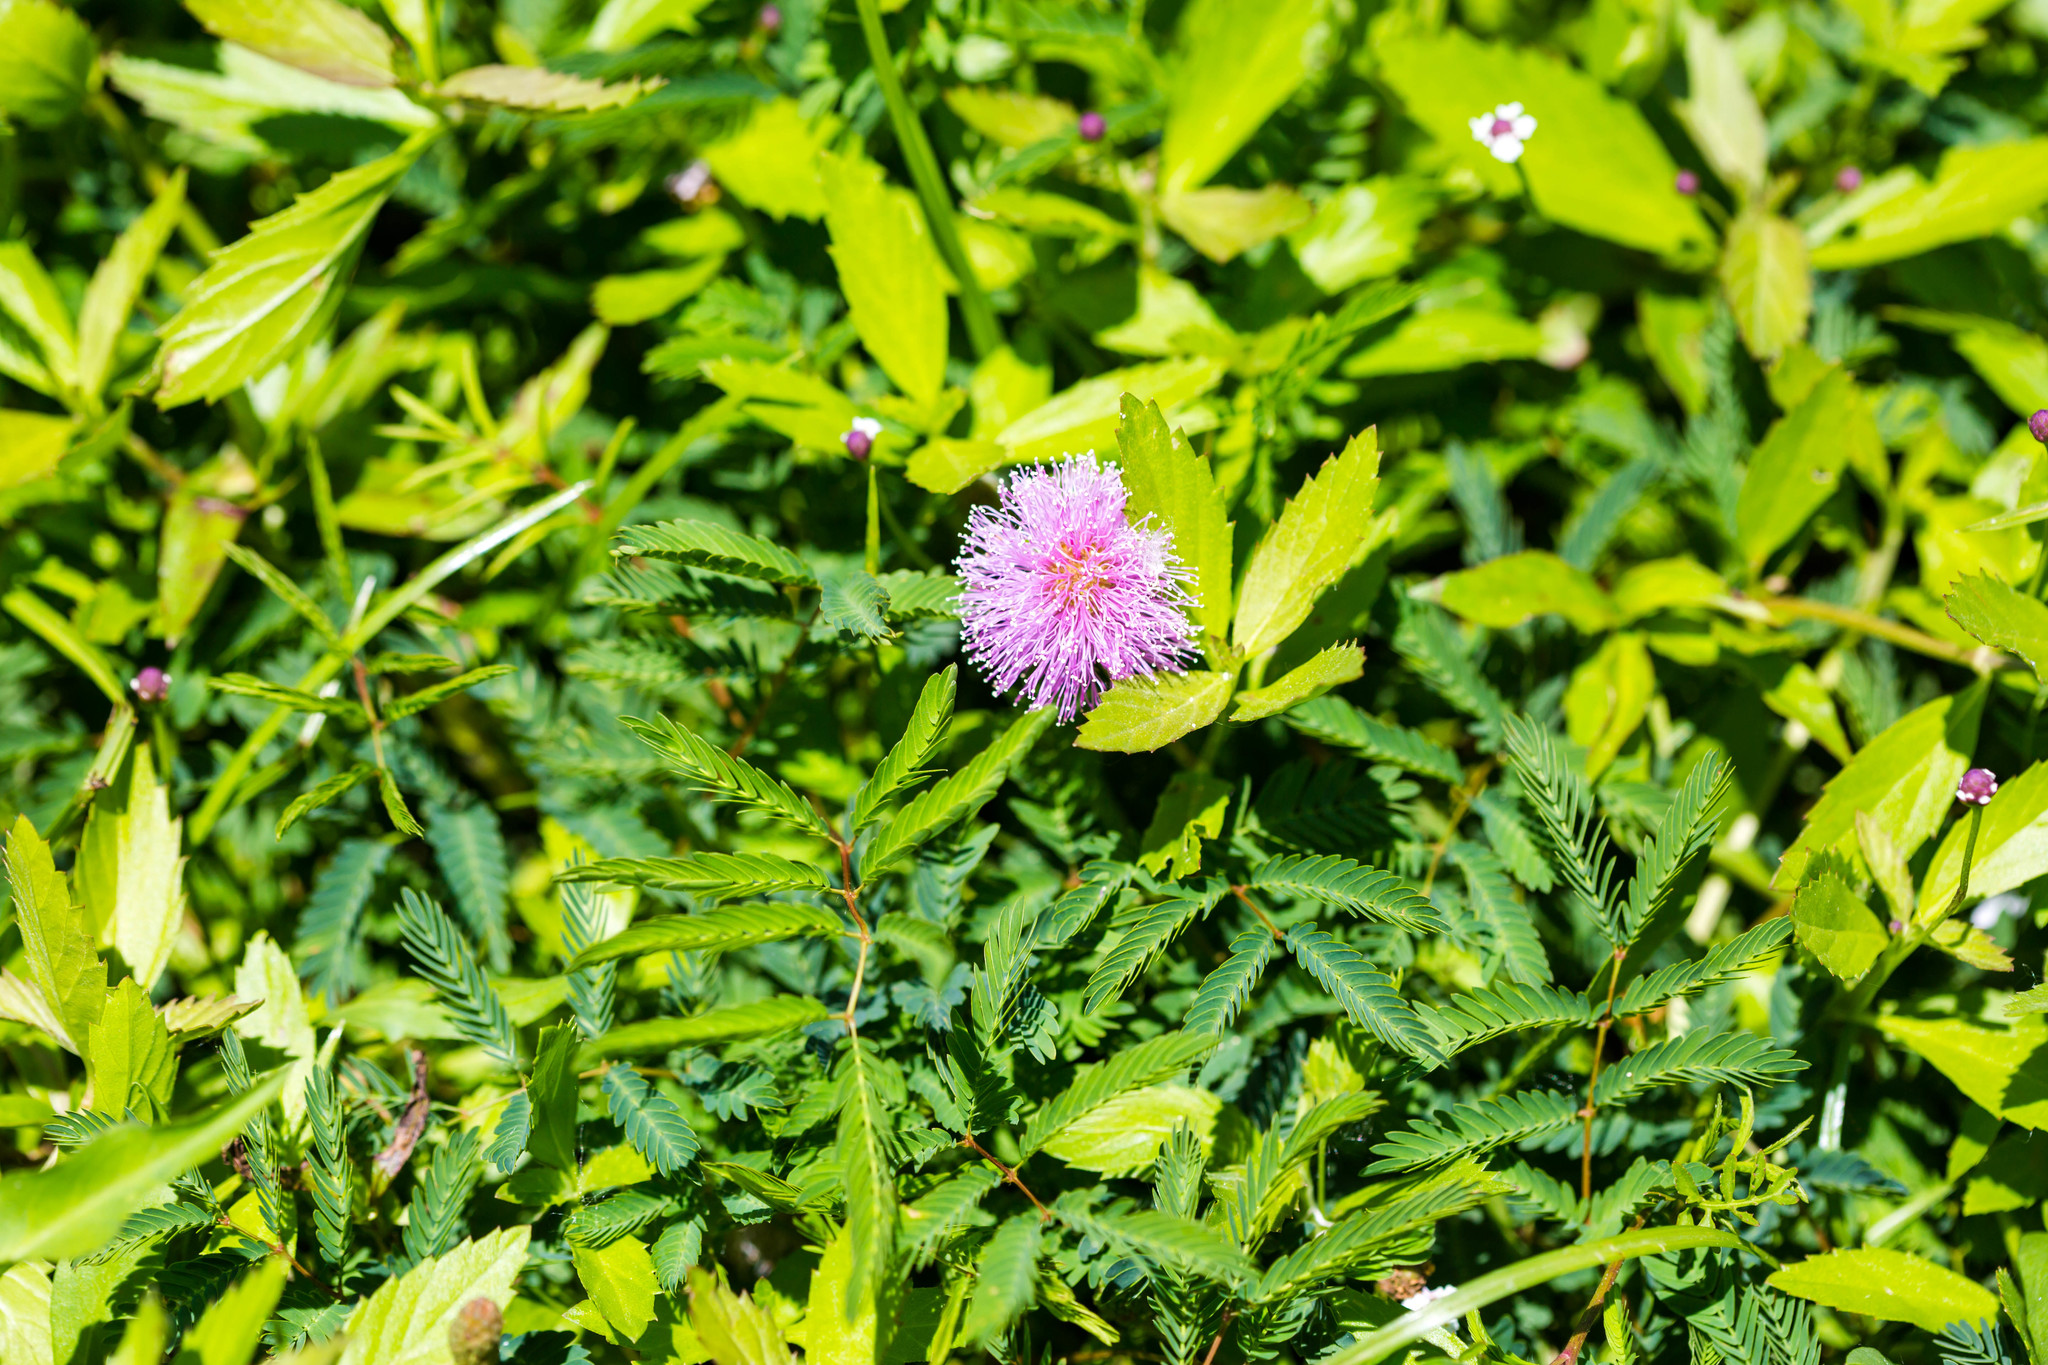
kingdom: Plantae
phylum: Tracheophyta
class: Magnoliopsida
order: Fabales
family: Fabaceae
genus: Mimosa
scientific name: Mimosa strigillosa
